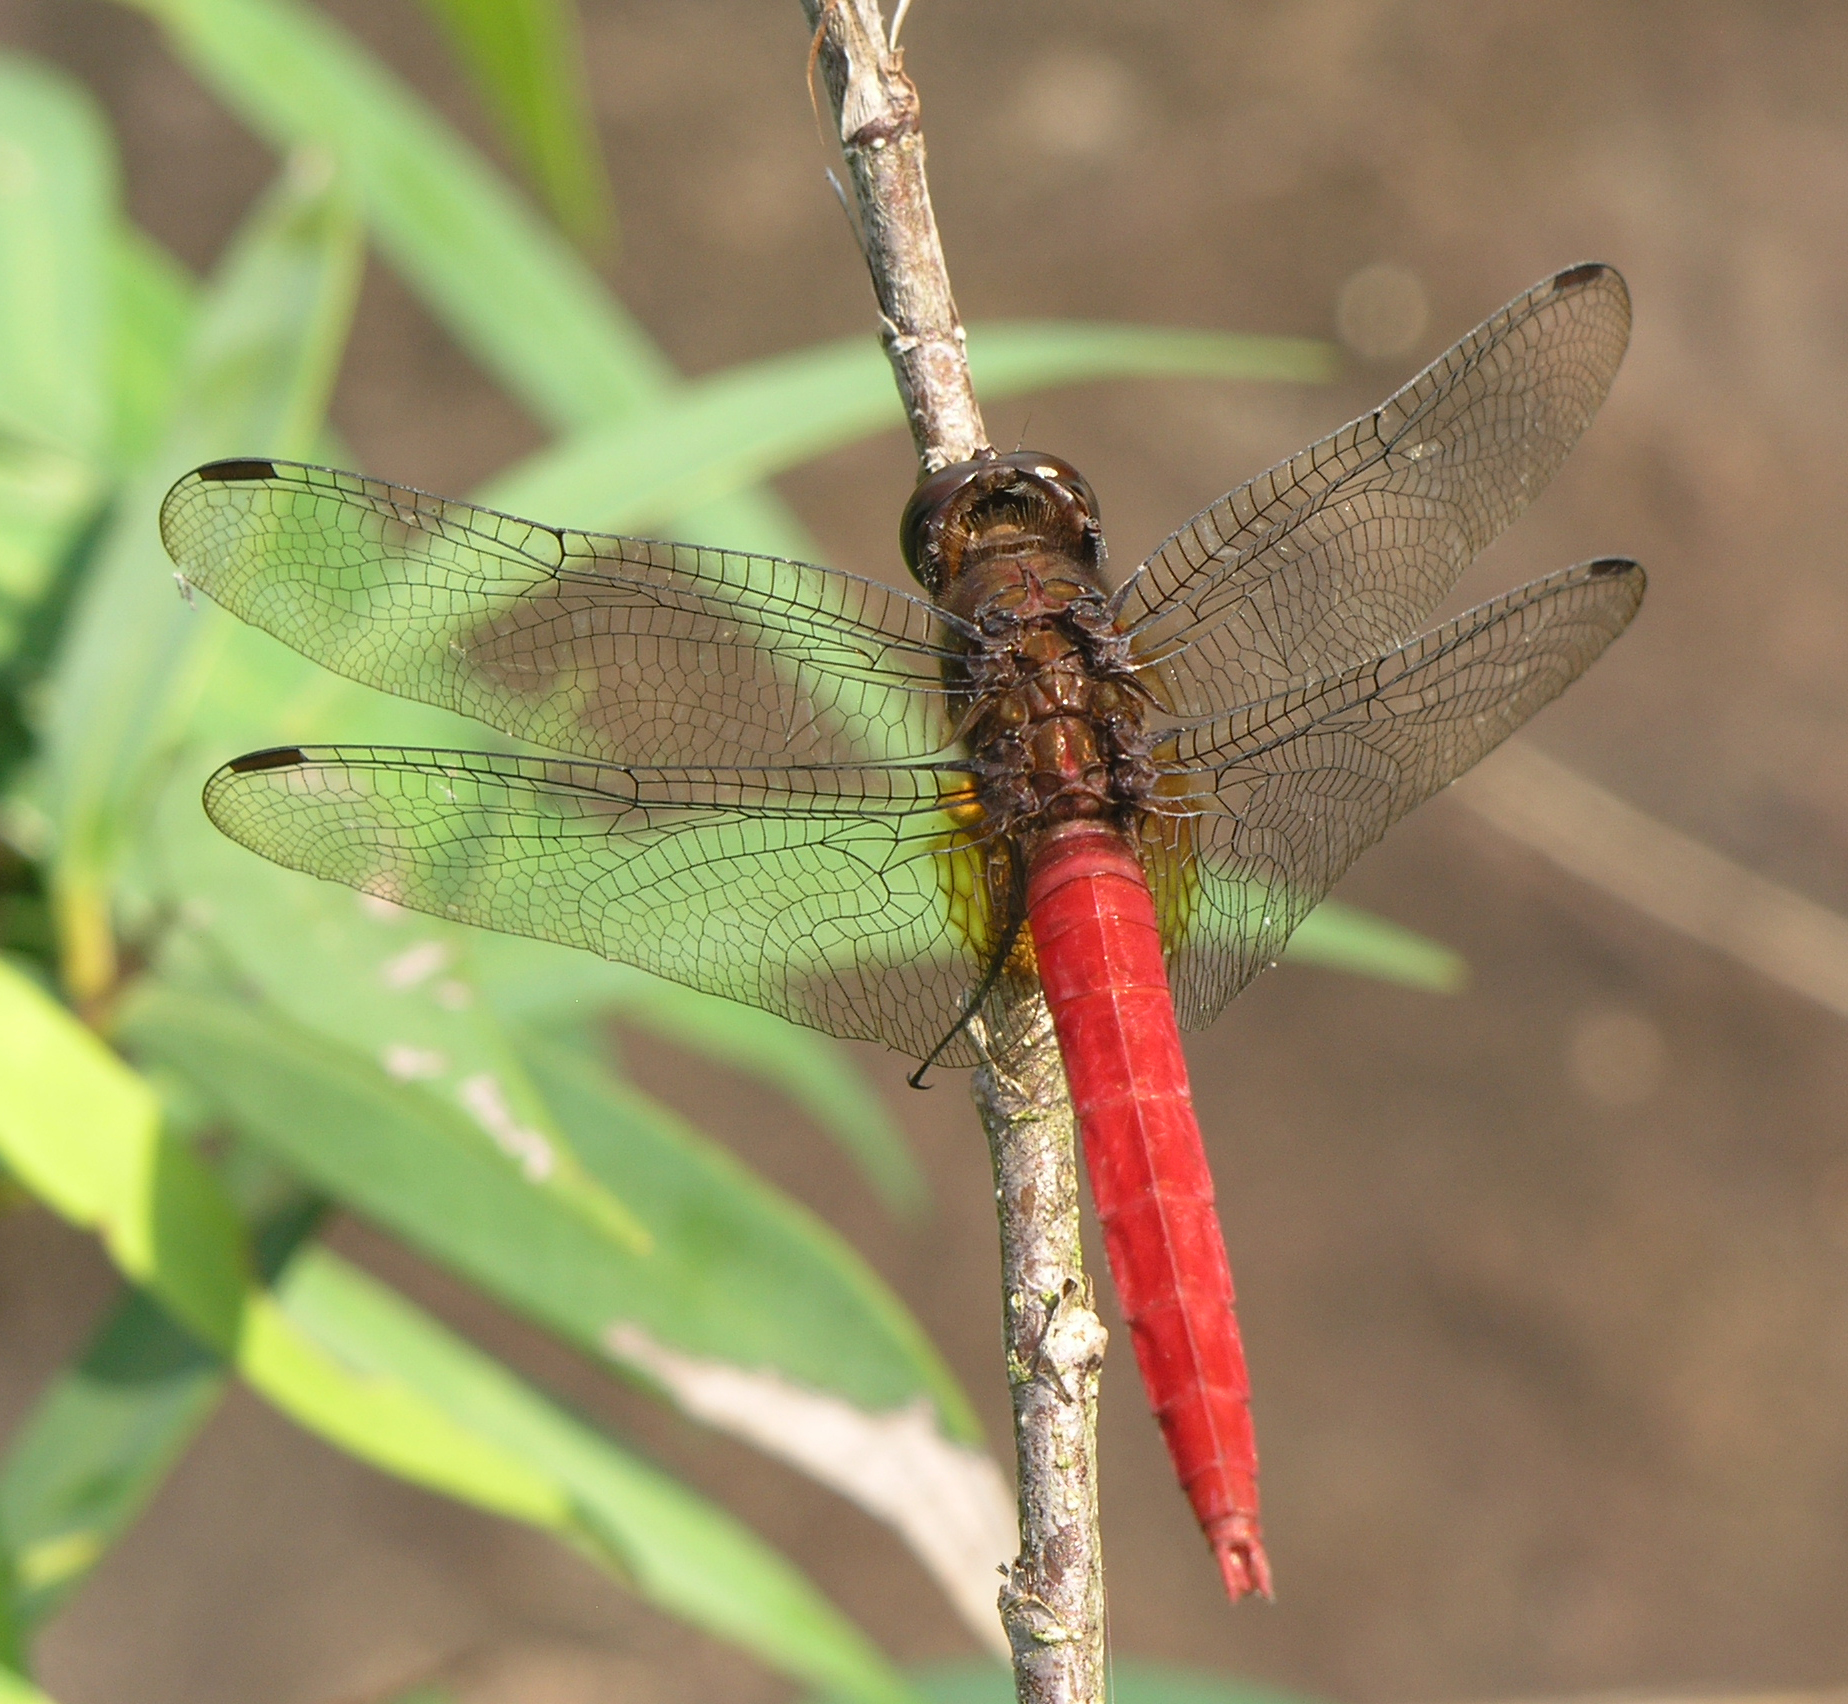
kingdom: Animalia
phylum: Arthropoda
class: Insecta
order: Odonata
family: Libellulidae
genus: Orthetrum
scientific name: Orthetrum chrysis
